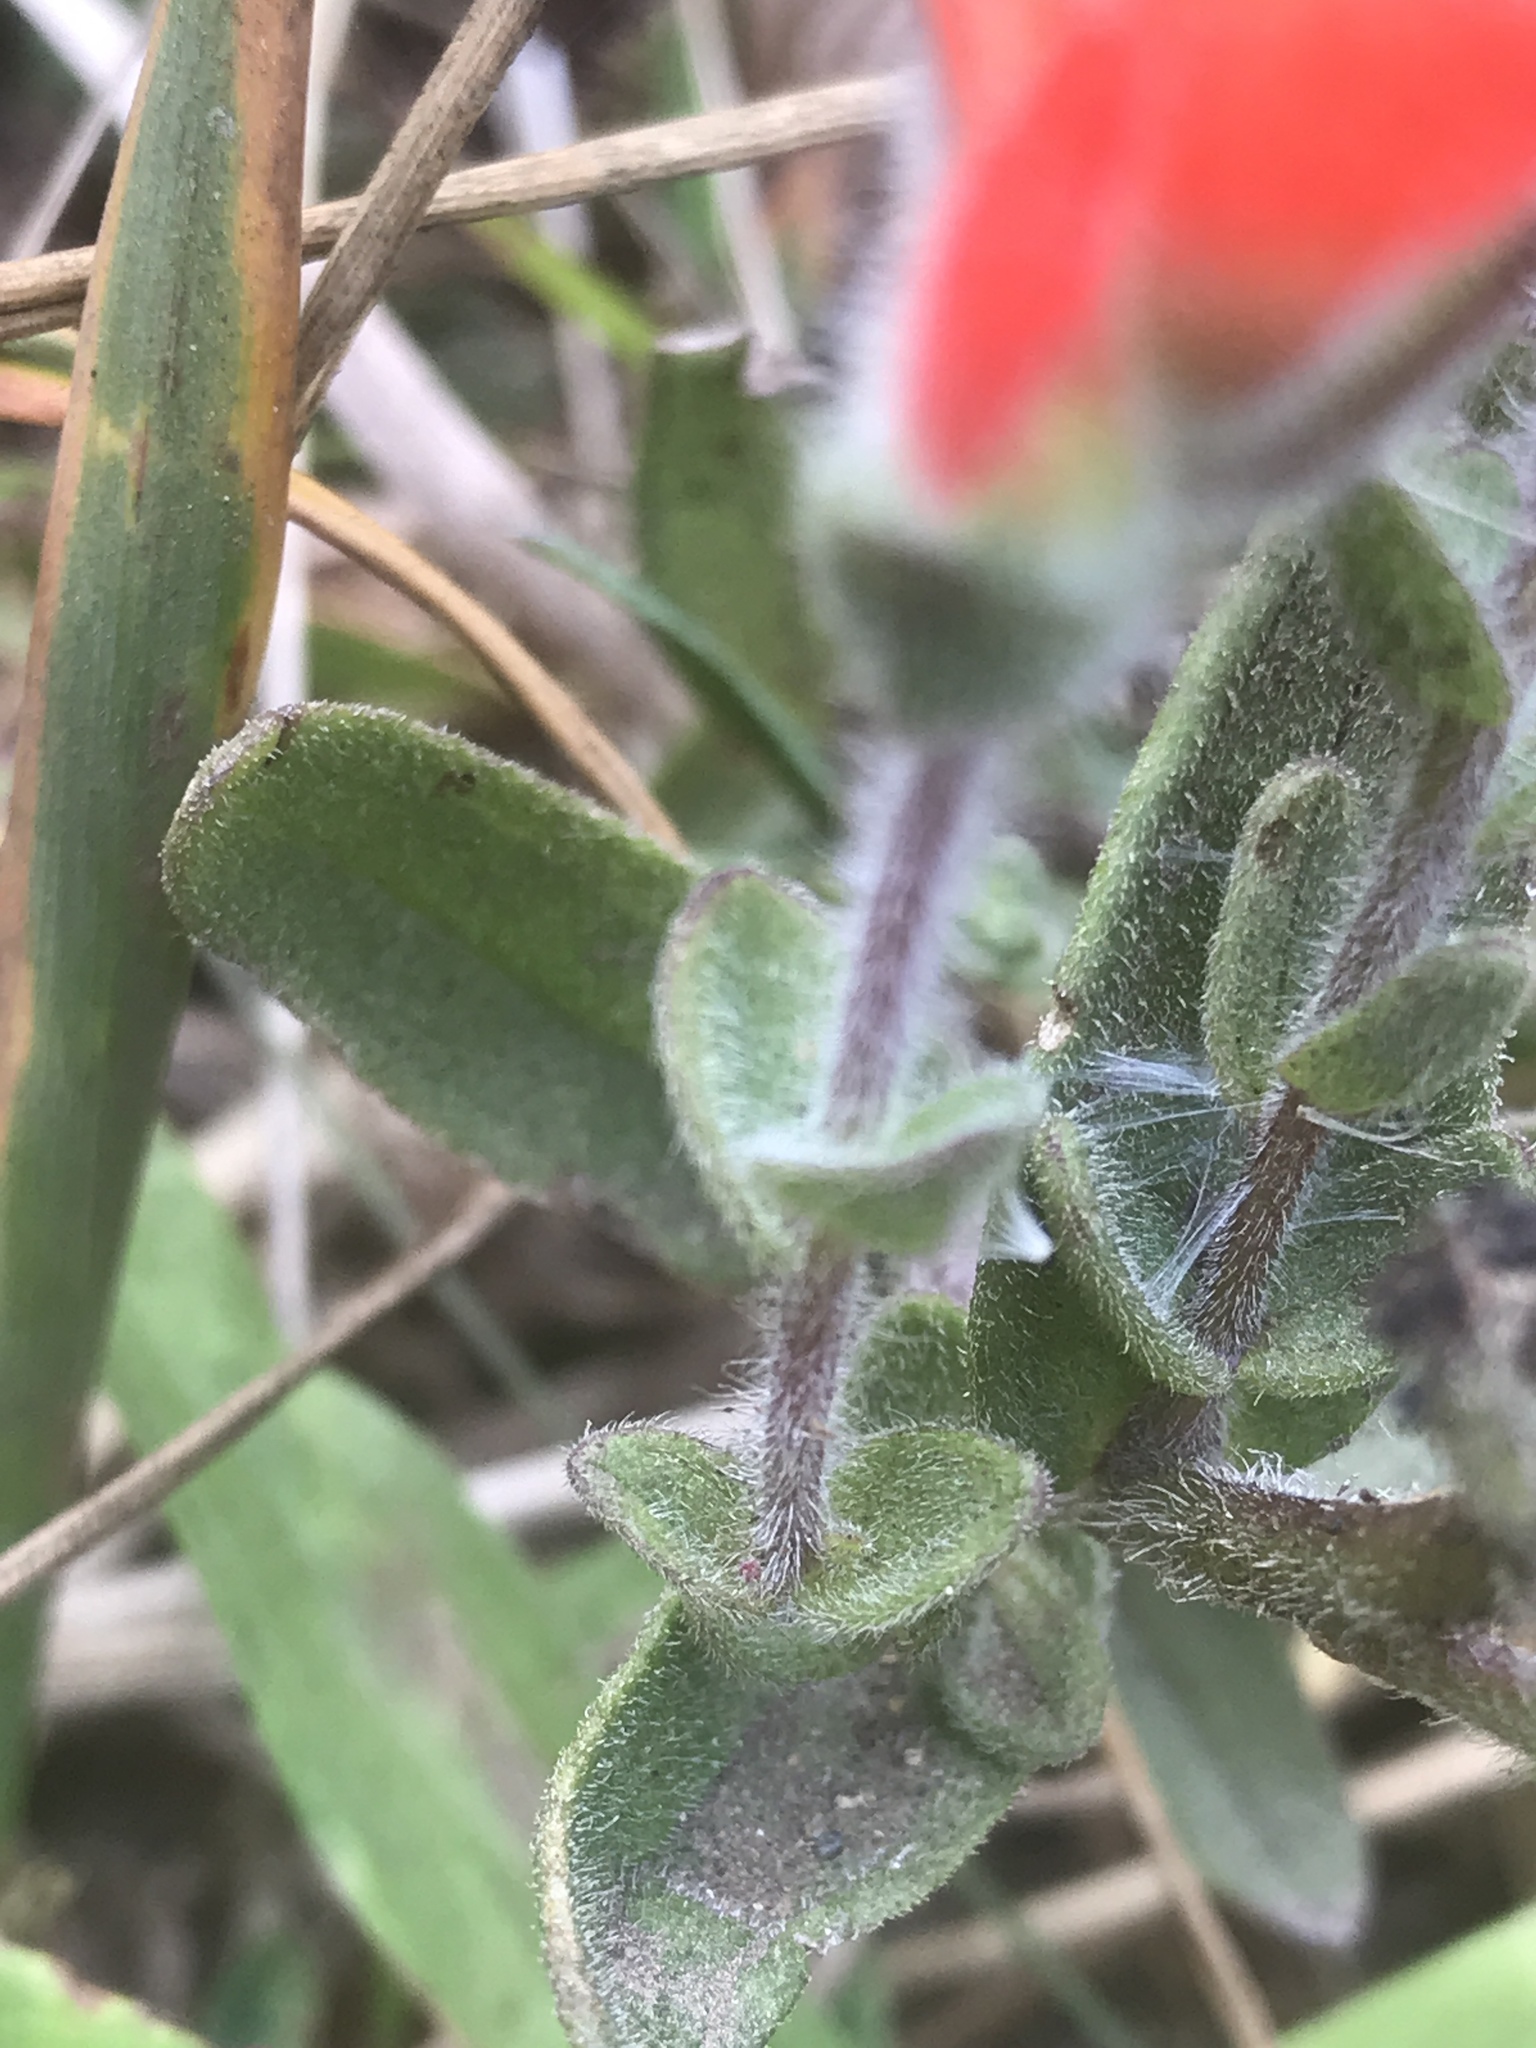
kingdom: Plantae
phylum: Tracheophyta
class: Magnoliopsida
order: Lamiales
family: Orobanchaceae
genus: Castilleja
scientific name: Castilleja litoralis
